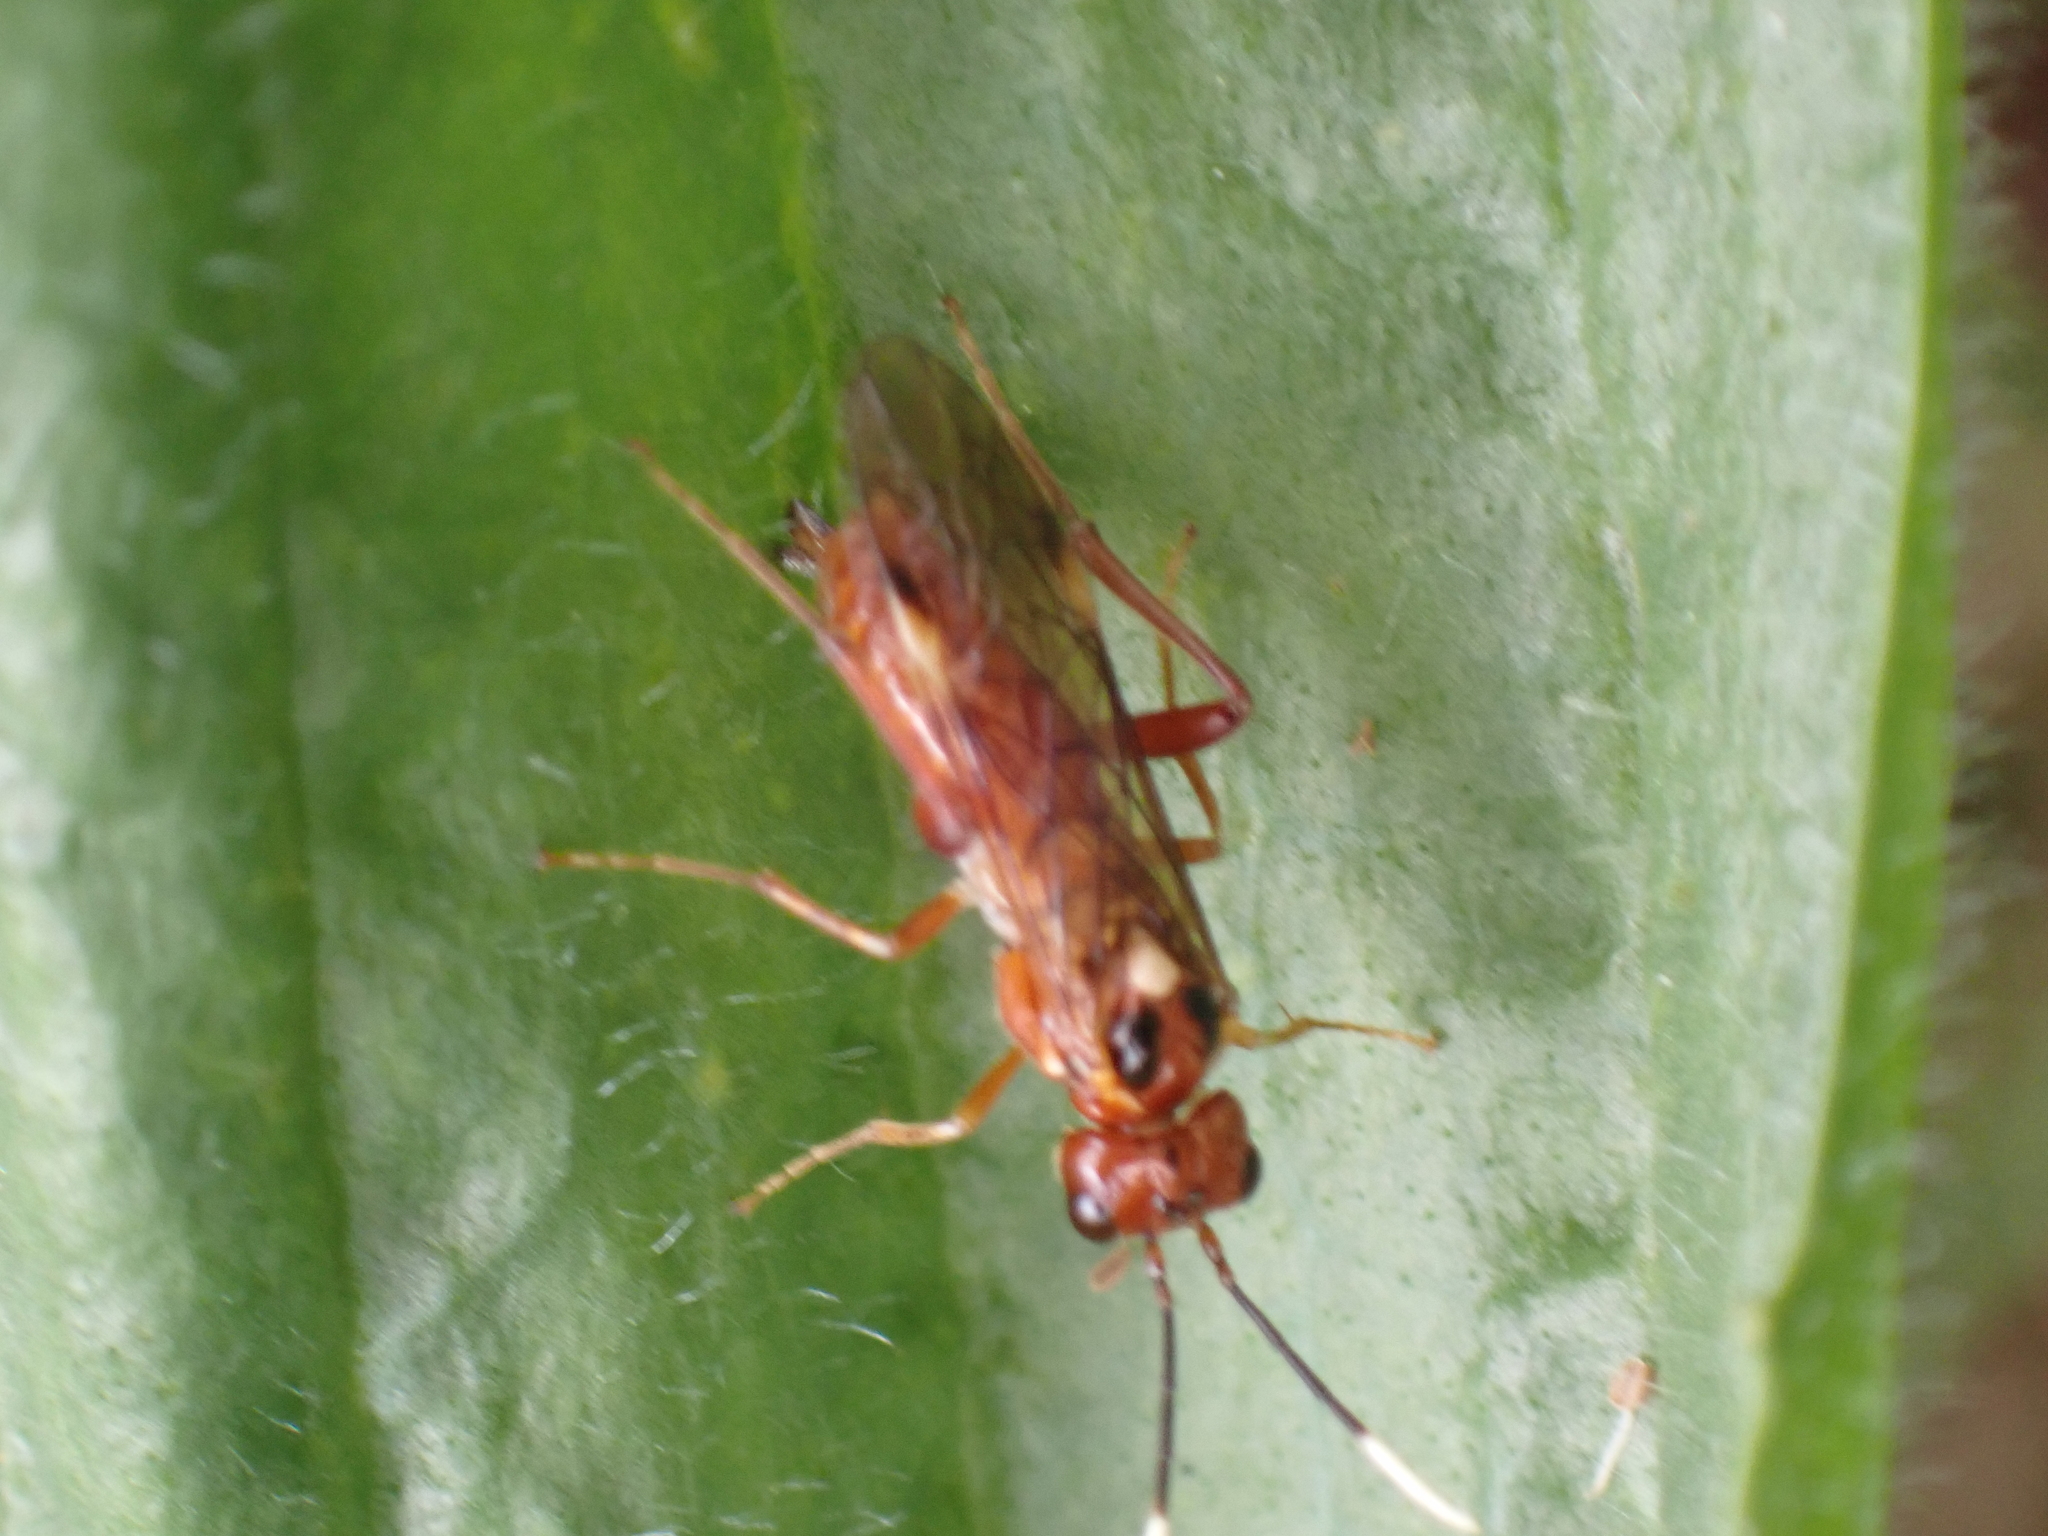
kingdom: Animalia
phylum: Arthropoda
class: Insecta
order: Hymenoptera
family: Tenthredinidae
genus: Macremphytus
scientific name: Macremphytus testaceus
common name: Dogwood sawfly
